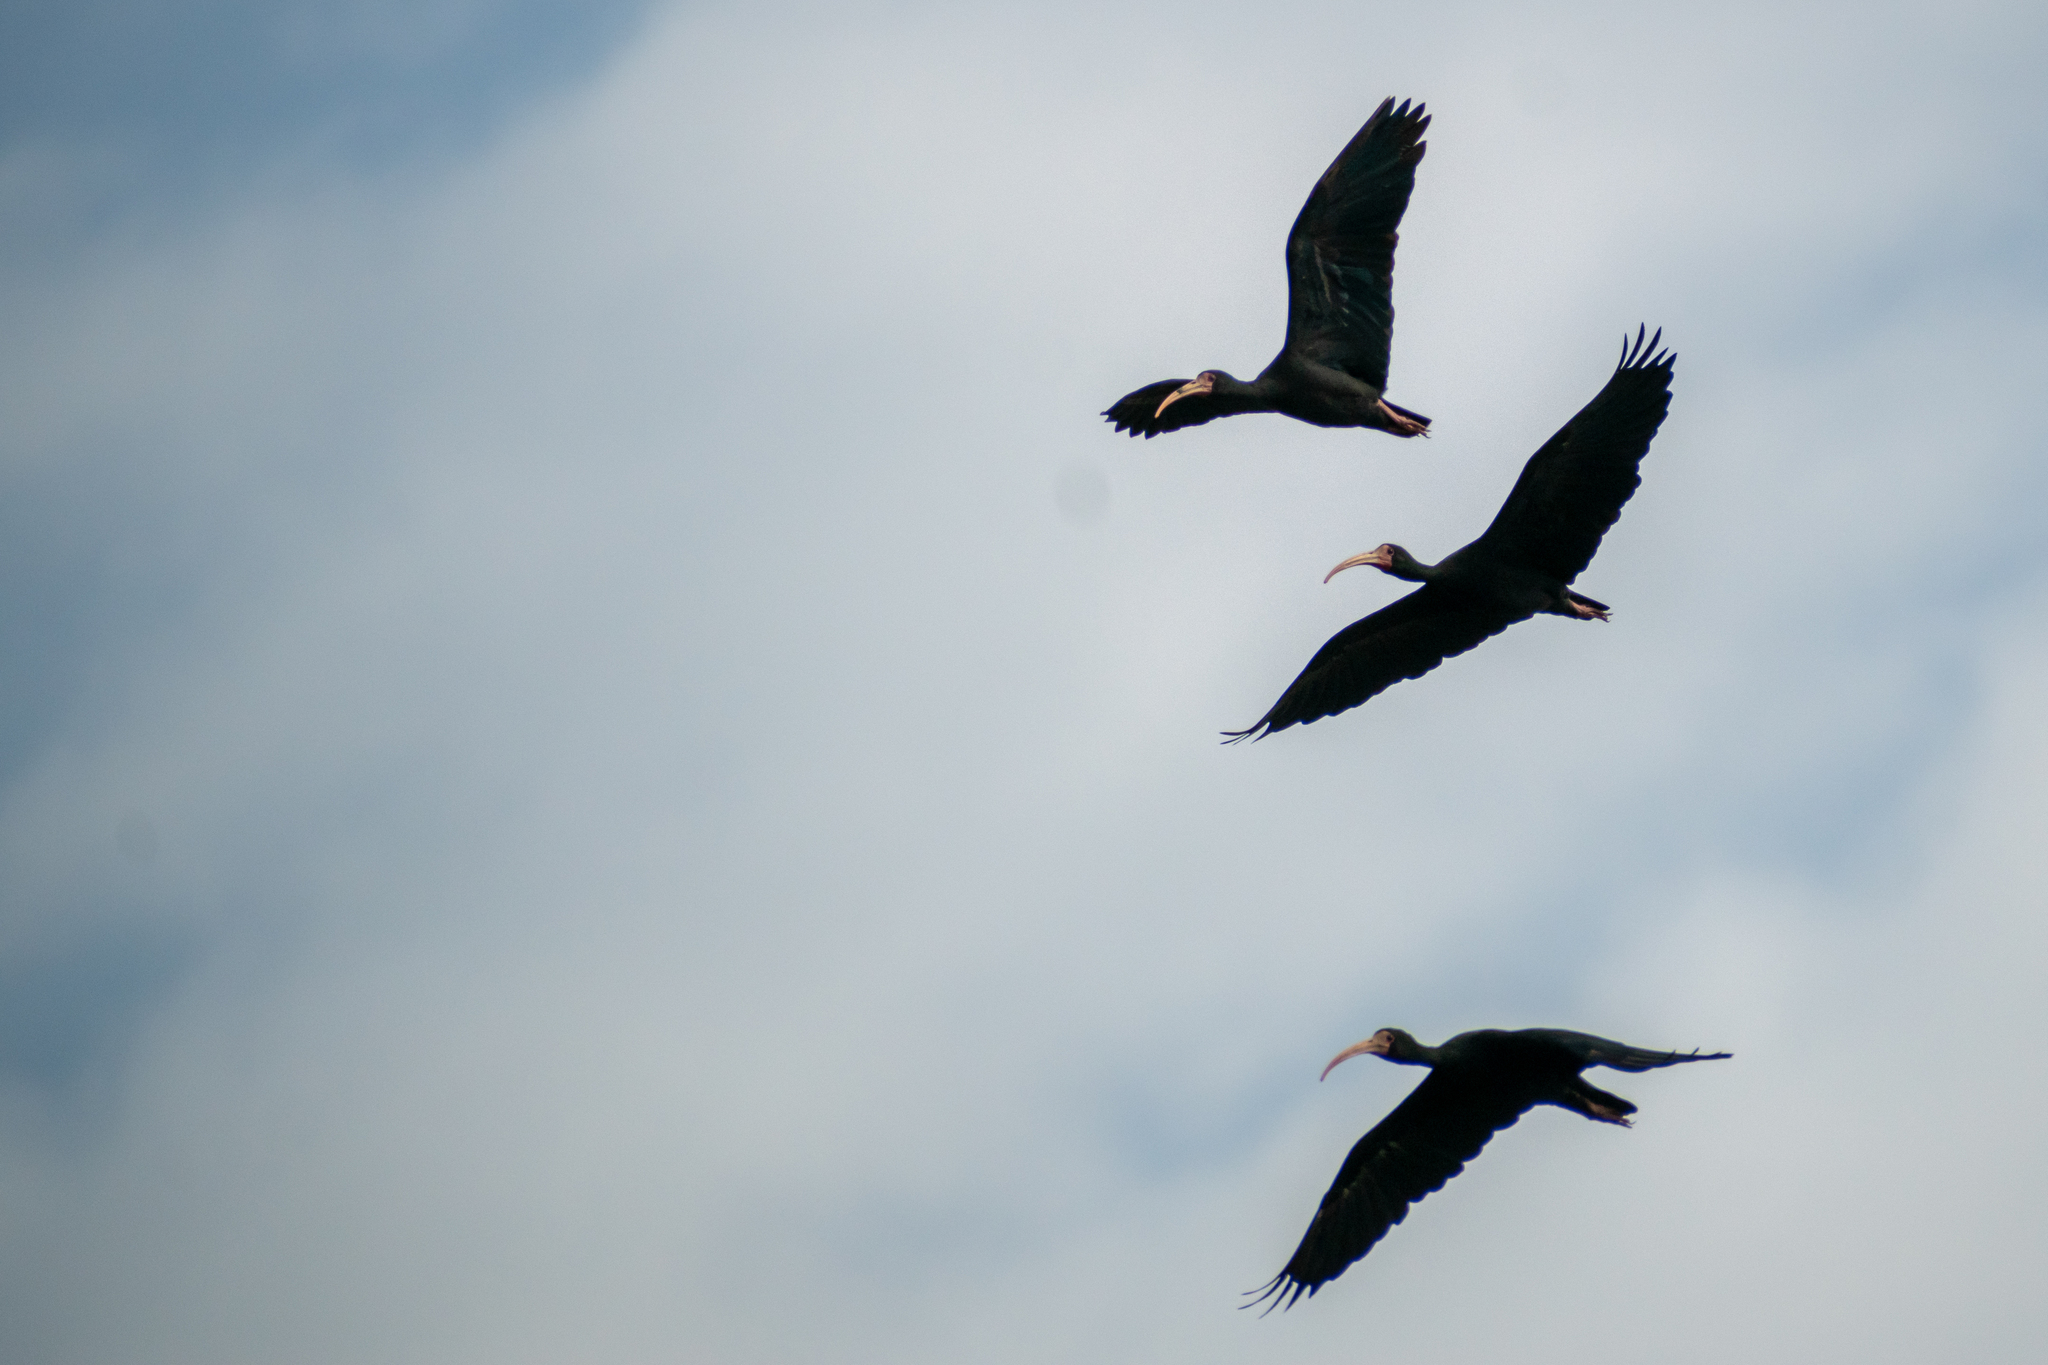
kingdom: Animalia
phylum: Chordata
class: Aves
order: Pelecaniformes
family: Threskiornithidae
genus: Phimosus
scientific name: Phimosus infuscatus
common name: Bare-faced ibis
